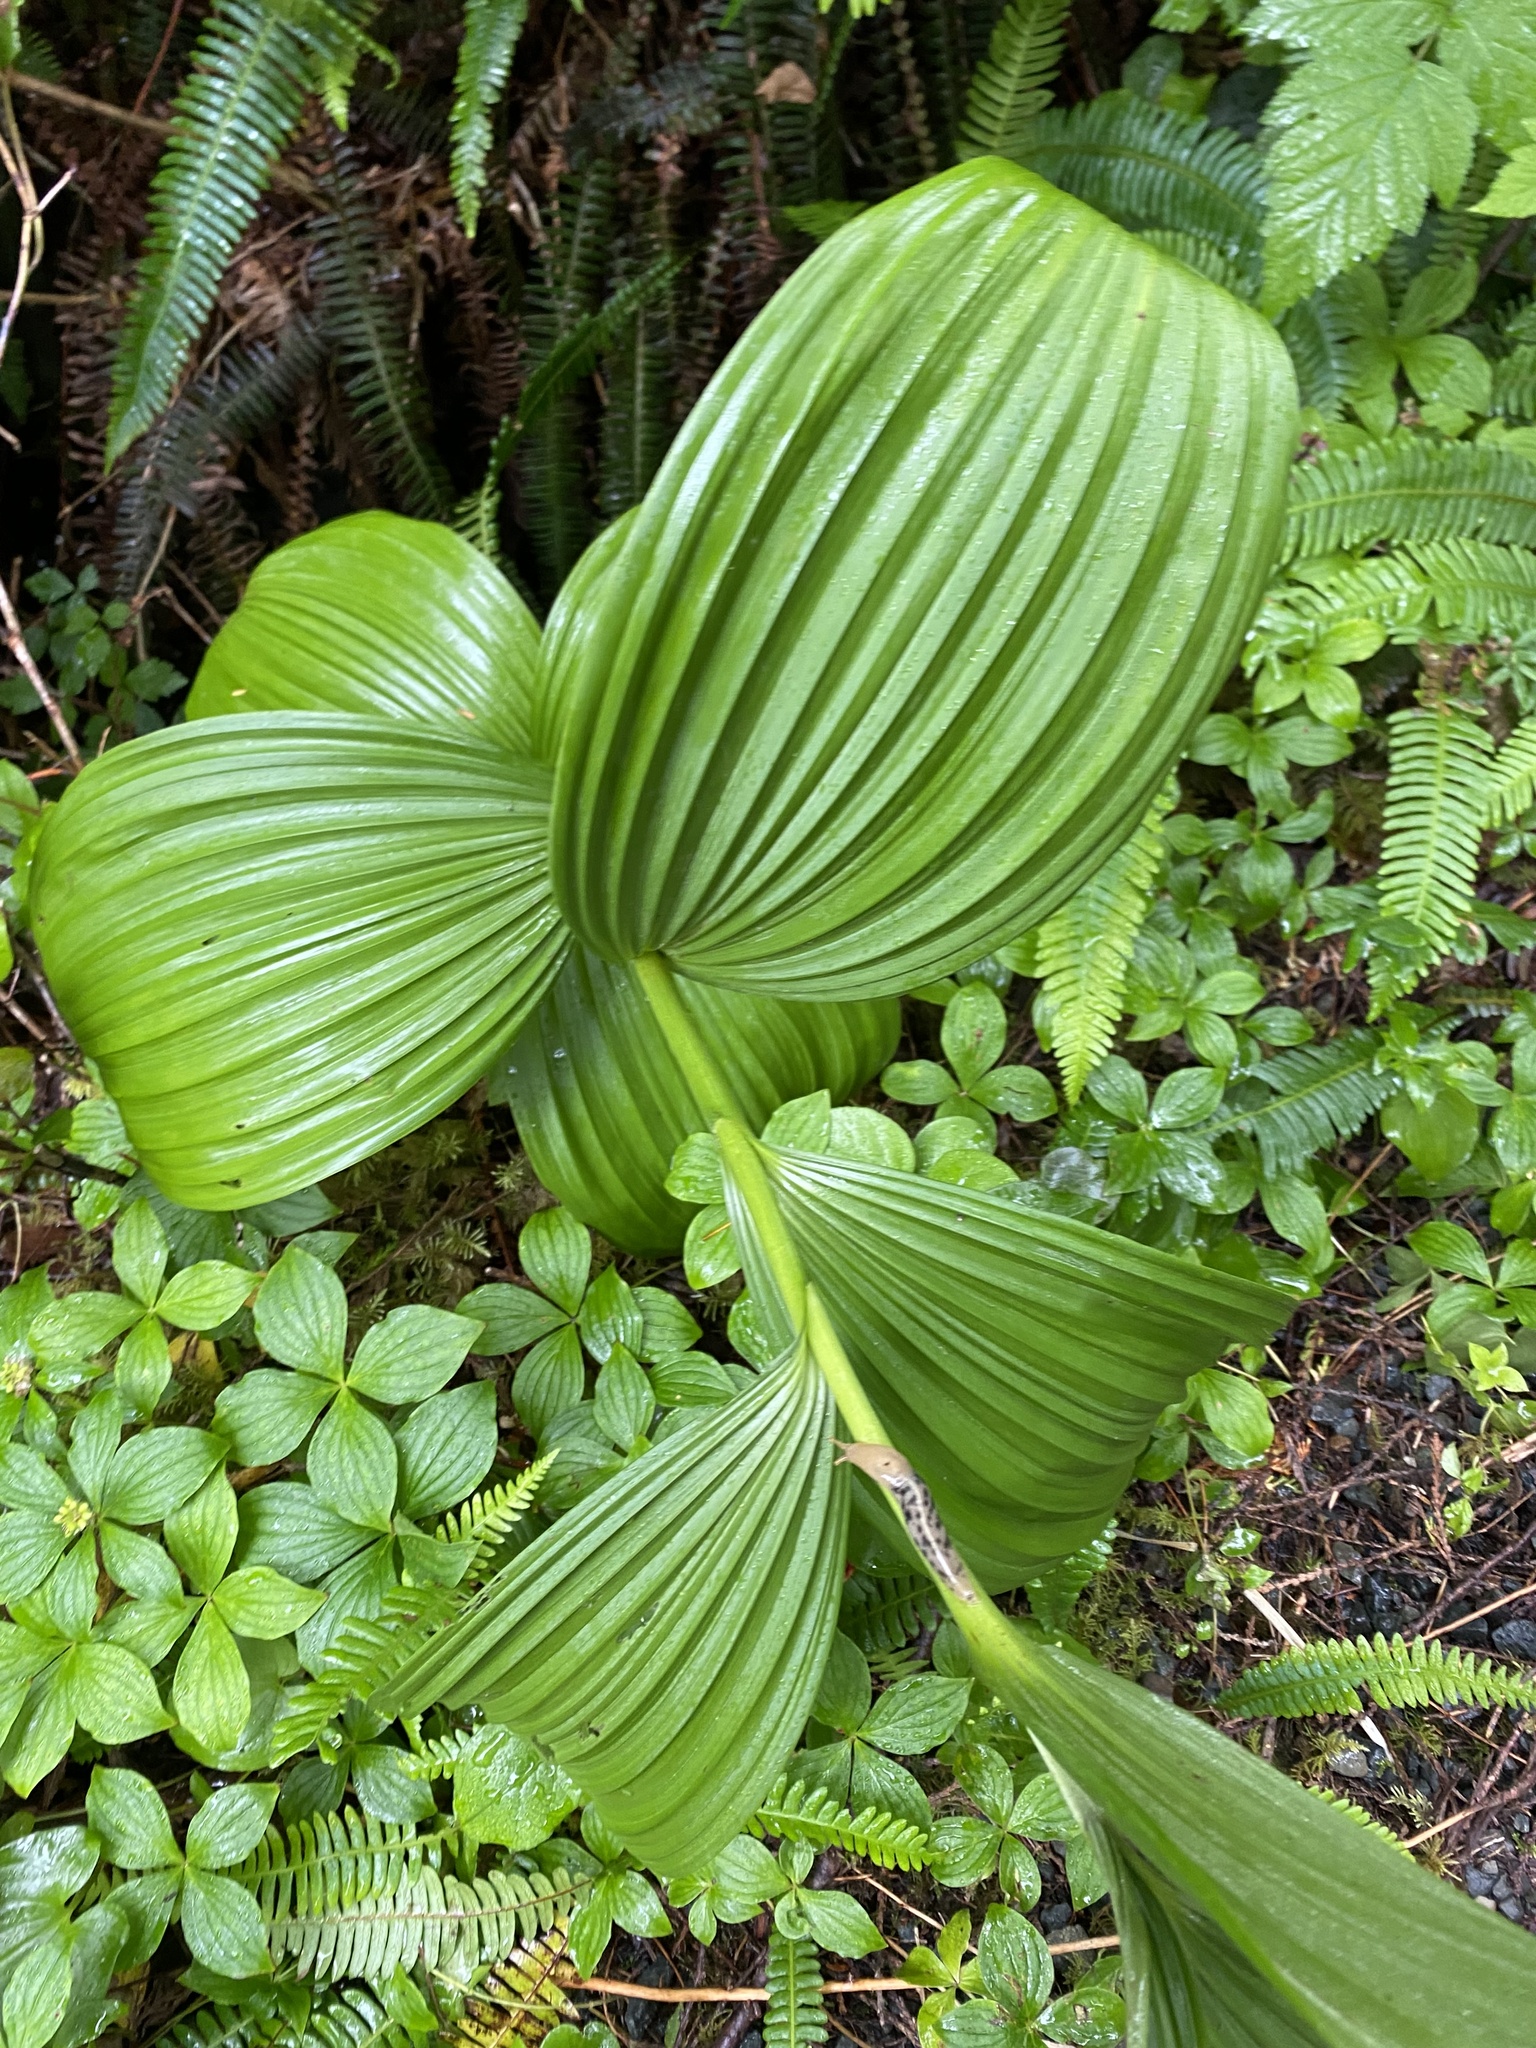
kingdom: Plantae
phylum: Tracheophyta
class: Liliopsida
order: Liliales
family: Melanthiaceae
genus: Veratrum
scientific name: Veratrum viride
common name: American false hellebore
